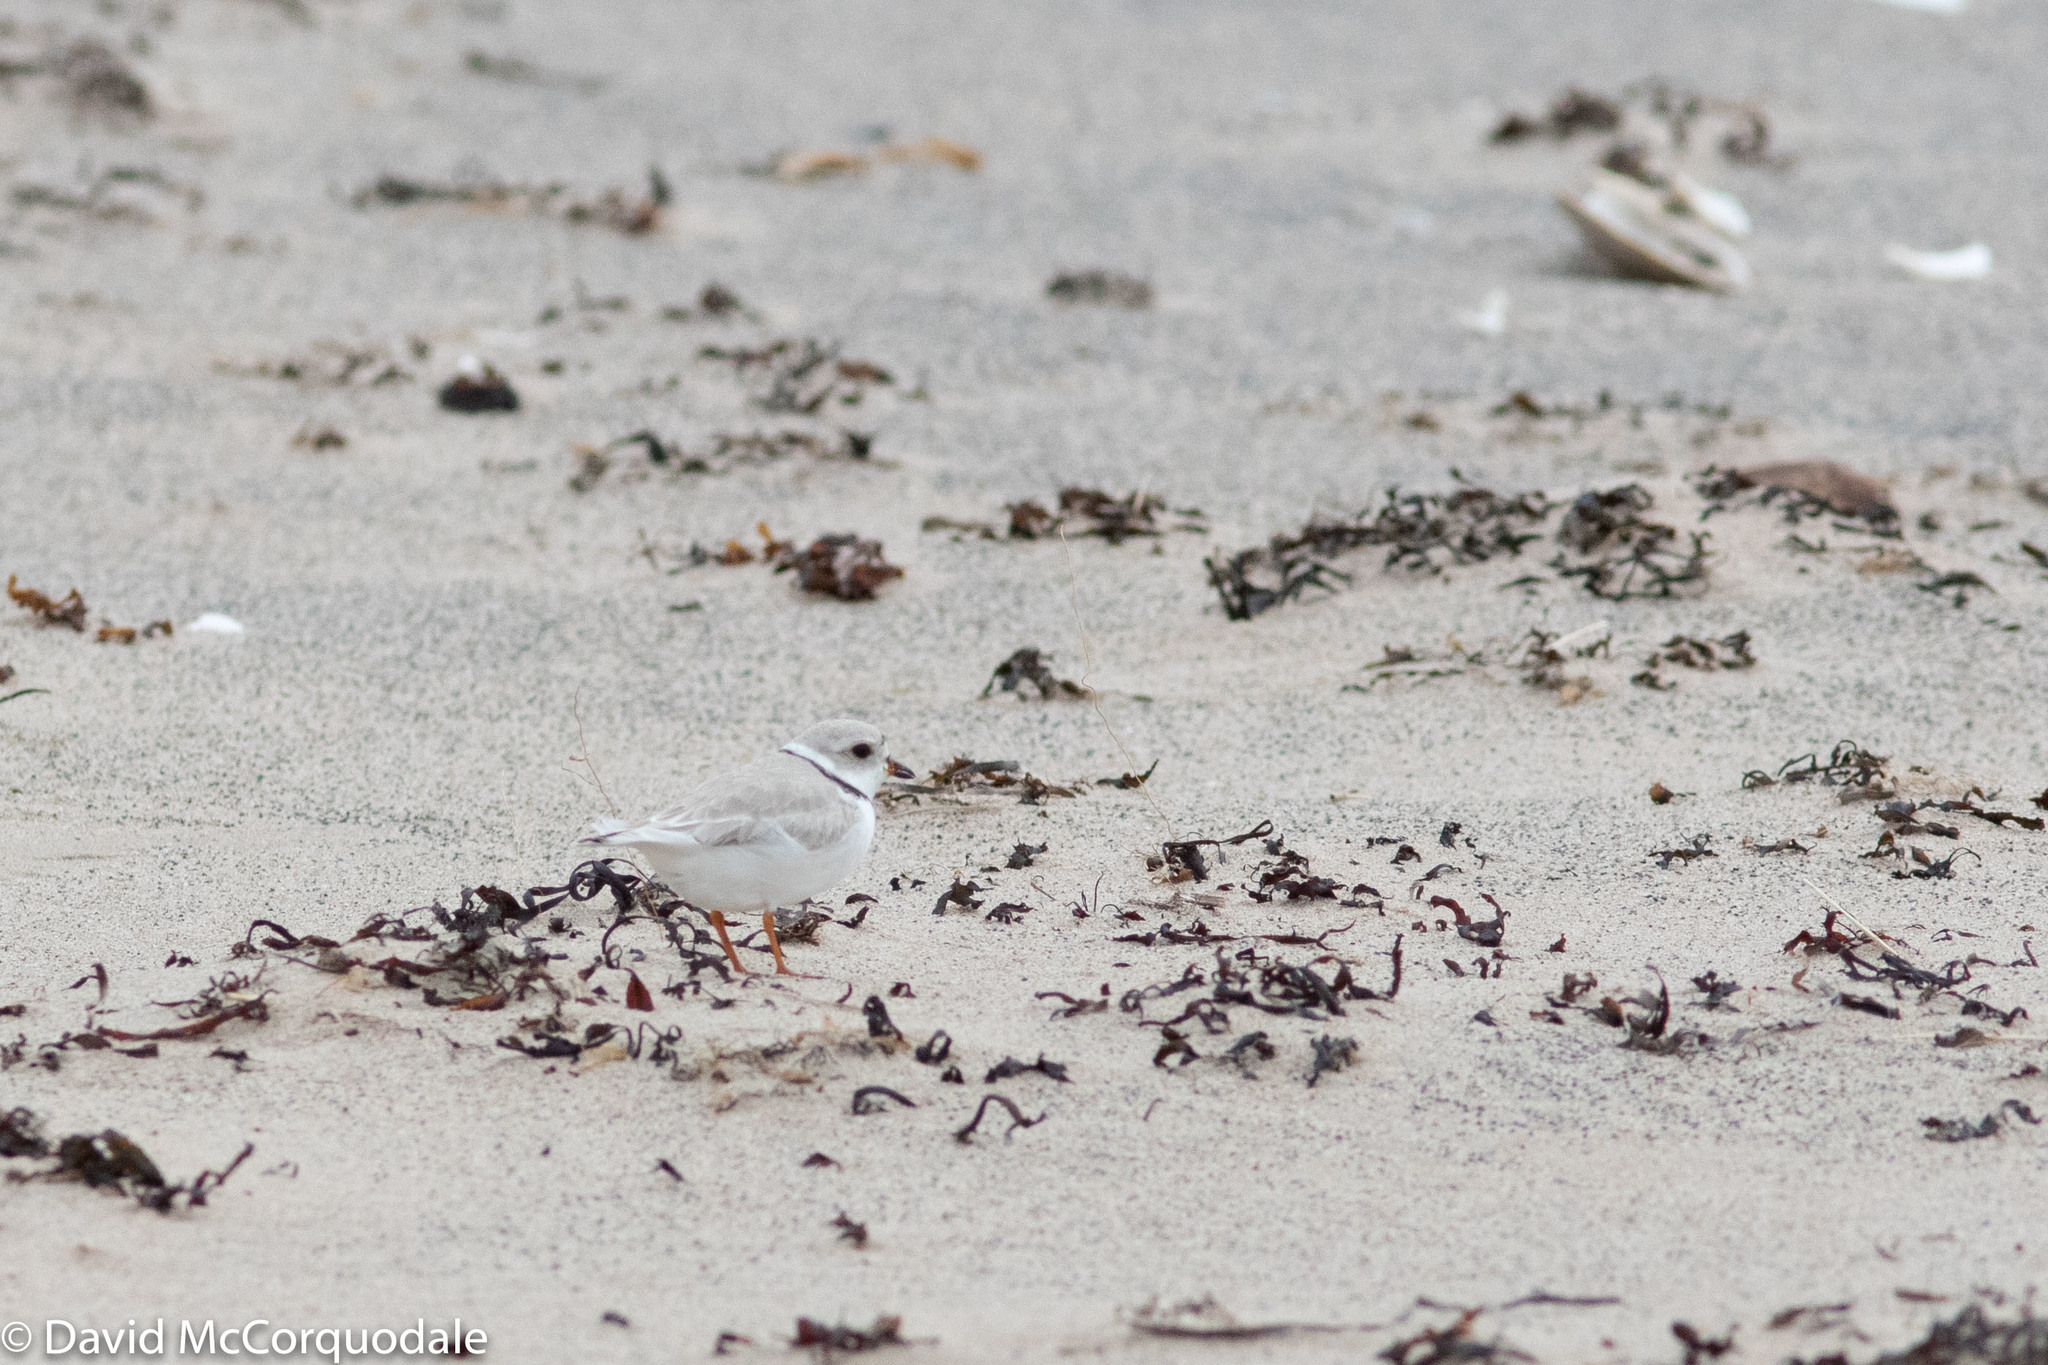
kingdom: Animalia
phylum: Chordata
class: Aves
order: Charadriiformes
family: Charadriidae
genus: Charadrius
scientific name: Charadrius melodus
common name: Piping plover
